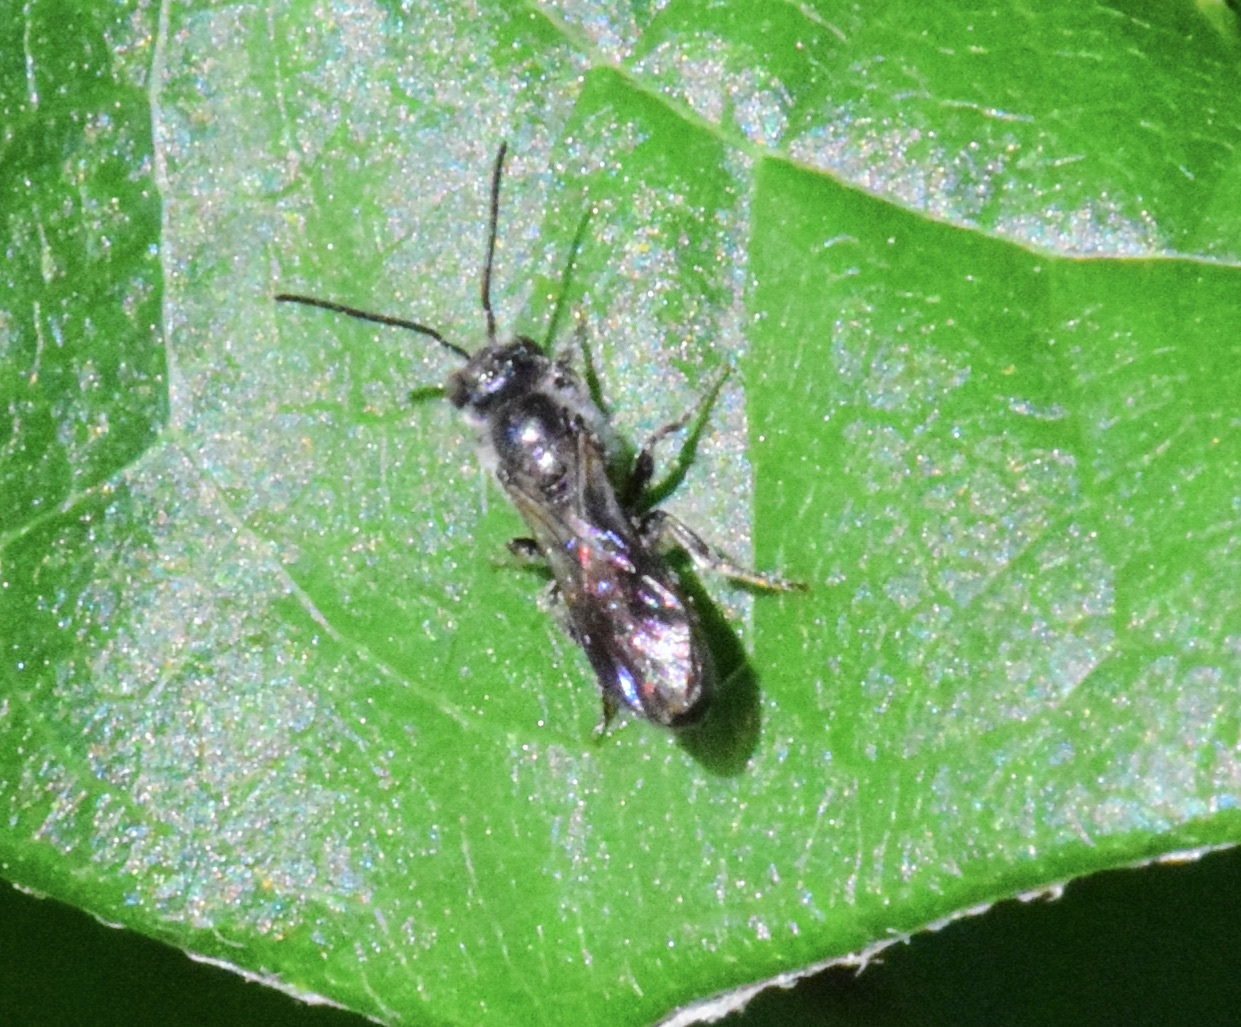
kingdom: Animalia
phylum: Arthropoda
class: Insecta
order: Hymenoptera
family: Megachilidae
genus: Chelostoma
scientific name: Chelostoma philadelphi
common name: Mock-orange scissor bee
